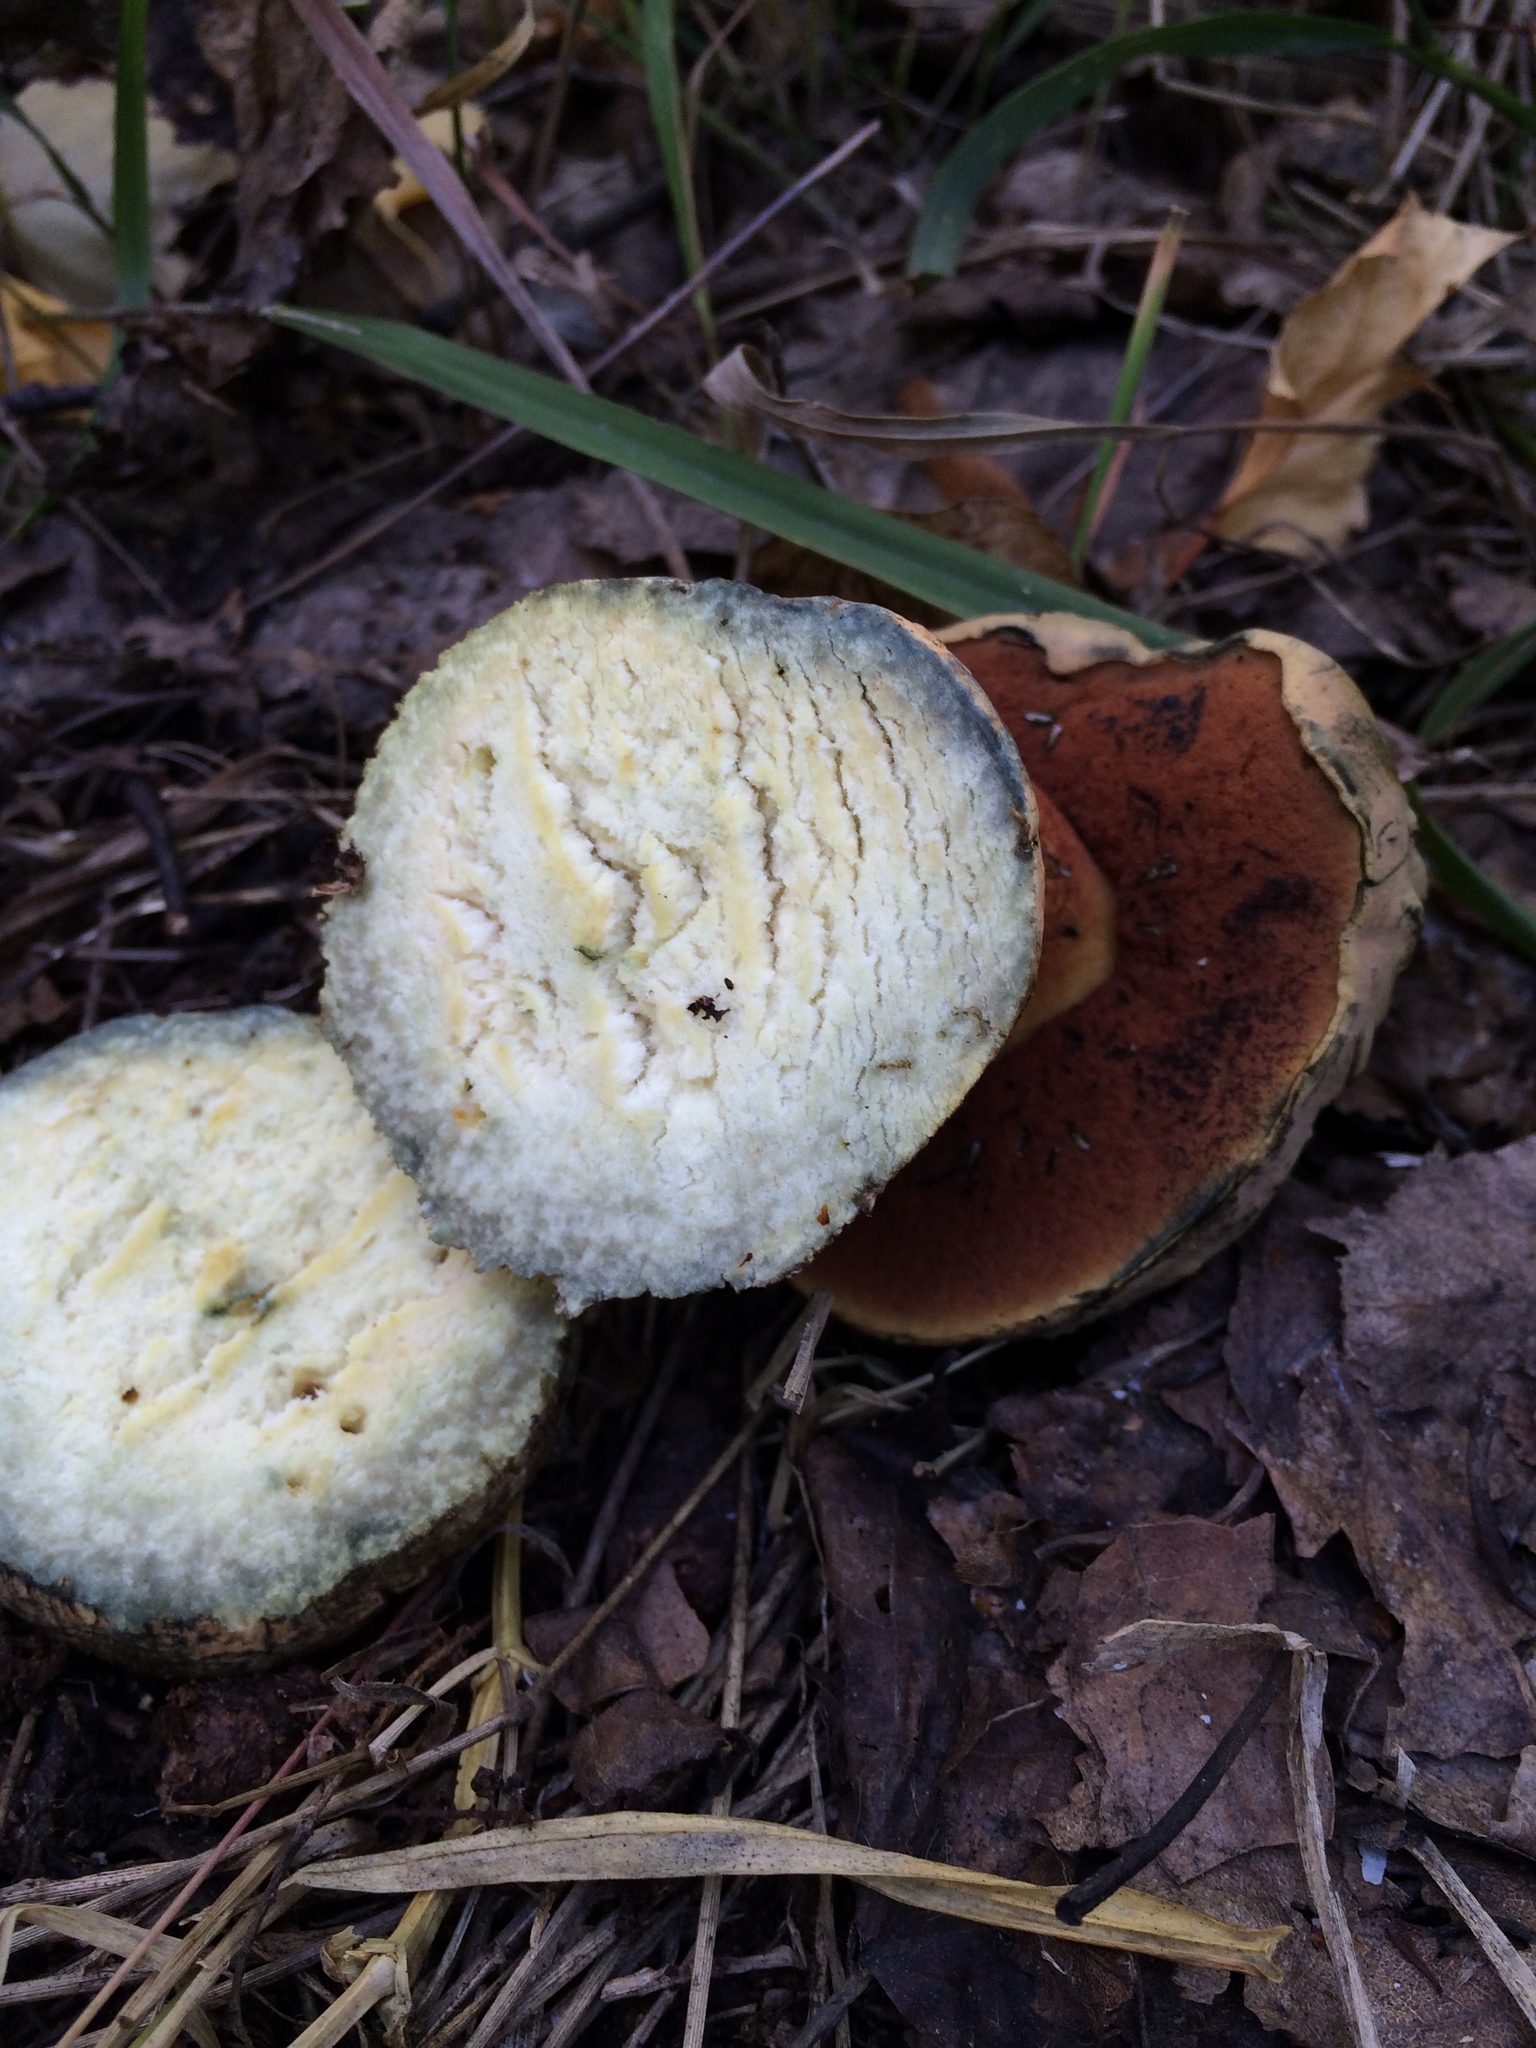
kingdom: Fungi
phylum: Basidiomycota
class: Agaricomycetes
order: Boletales
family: Boletaceae
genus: Suillellus
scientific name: Suillellus luridus
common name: Lurid bolete
